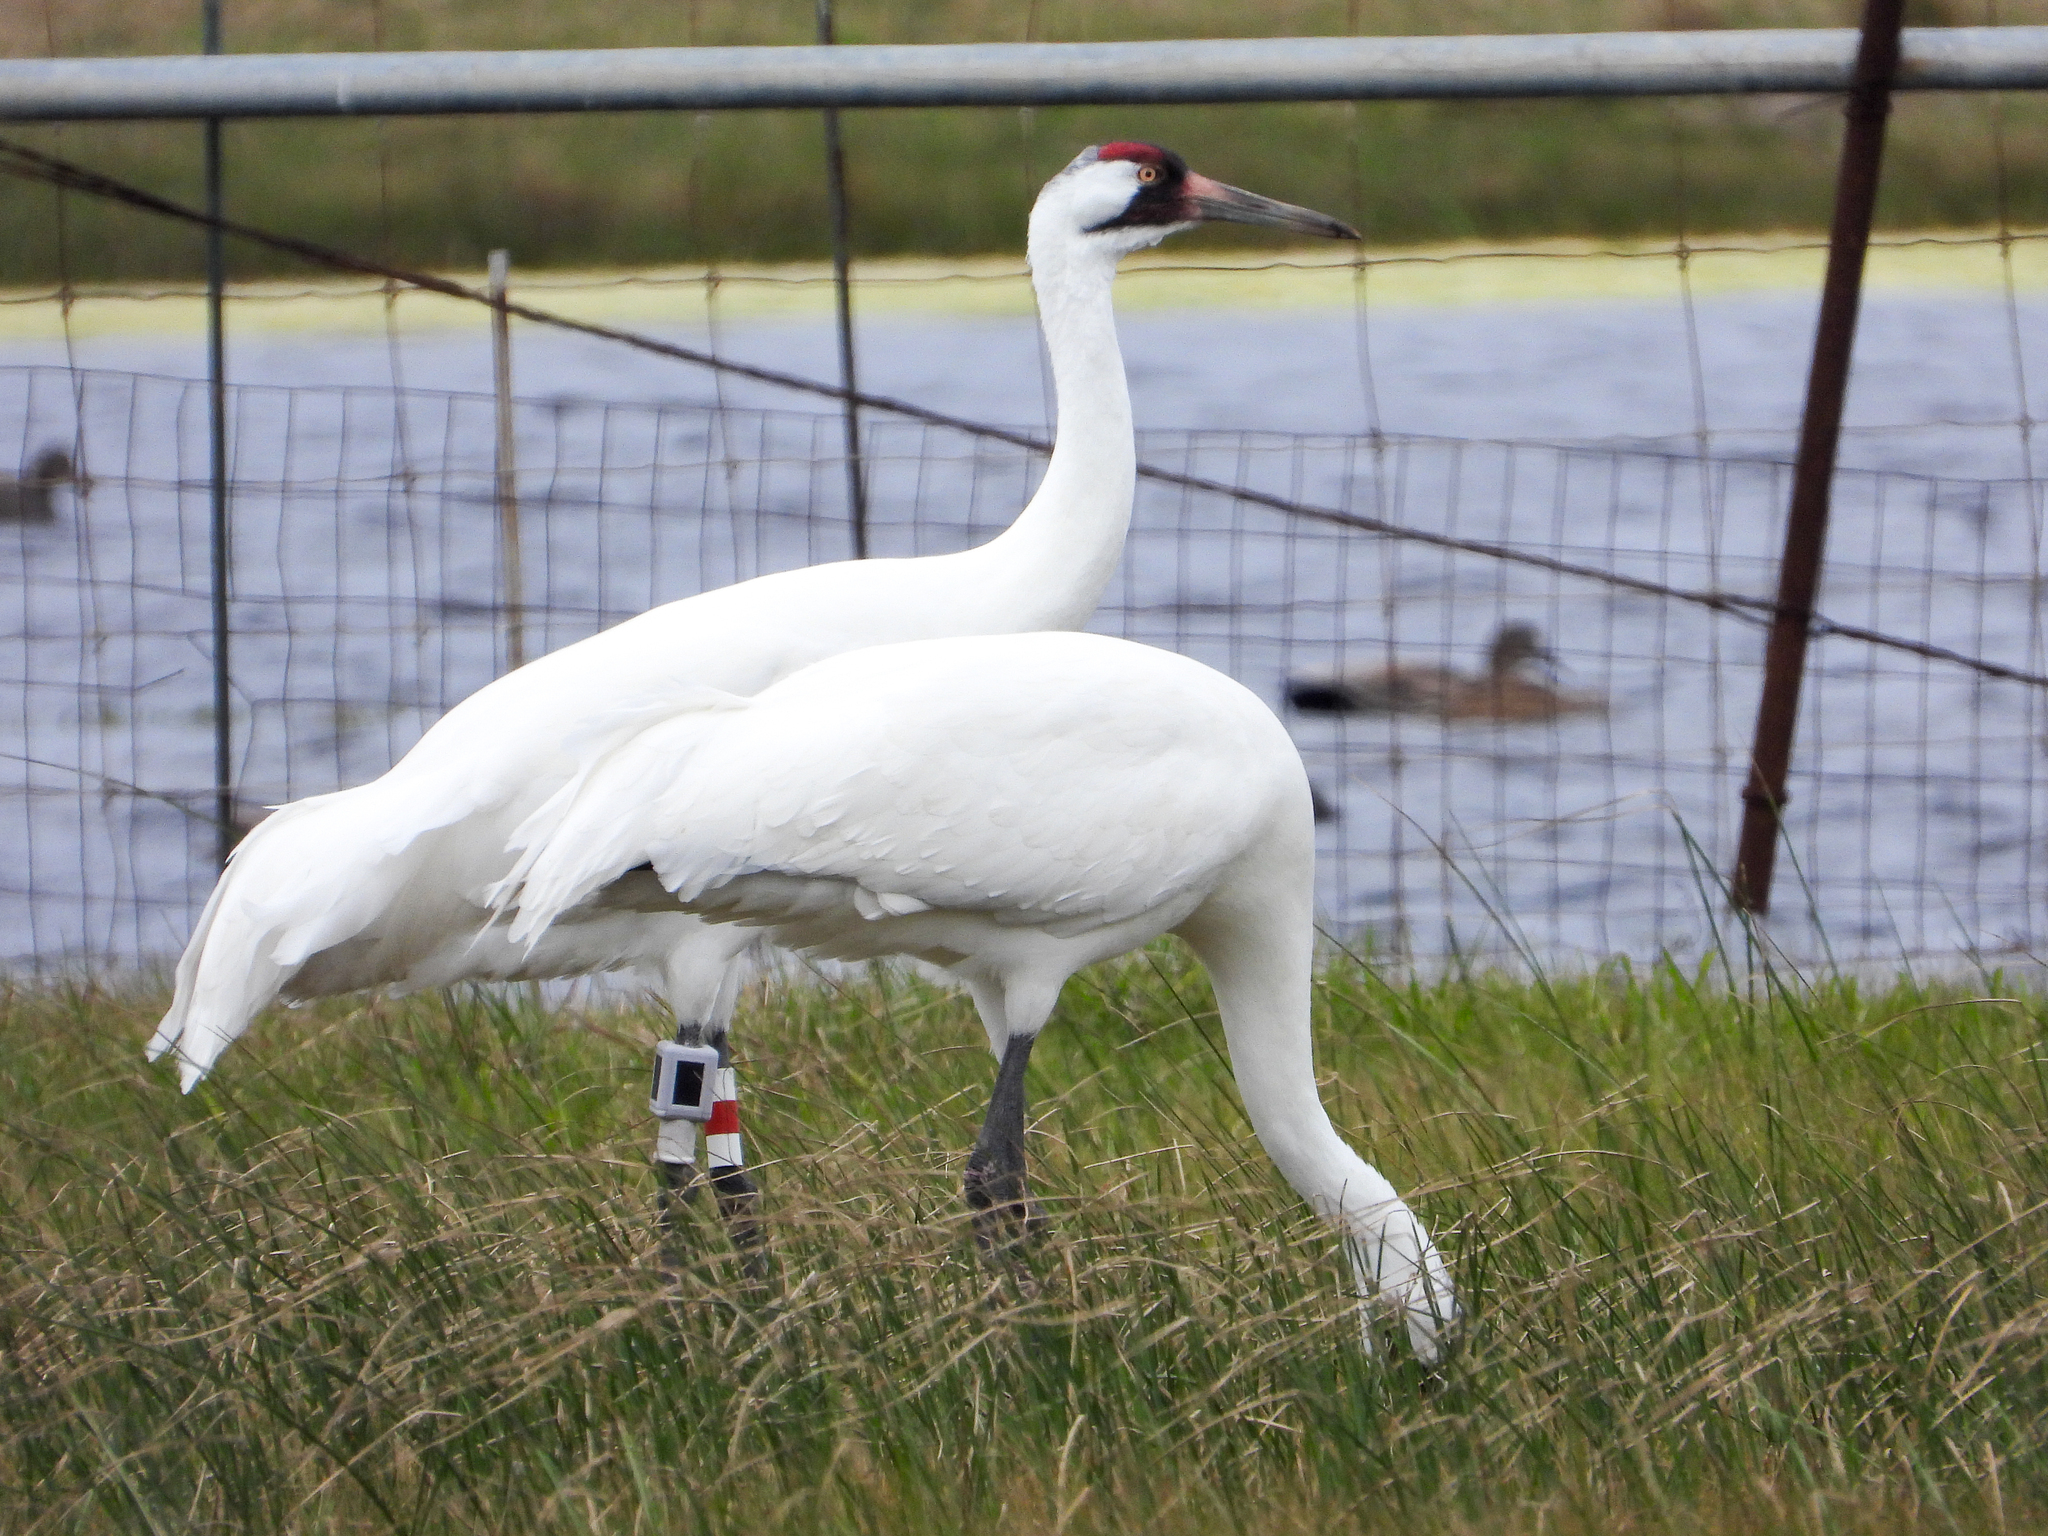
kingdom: Animalia
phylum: Chordata
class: Aves
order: Gruiformes
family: Gruidae
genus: Grus
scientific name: Grus americana
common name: Whooping crane
